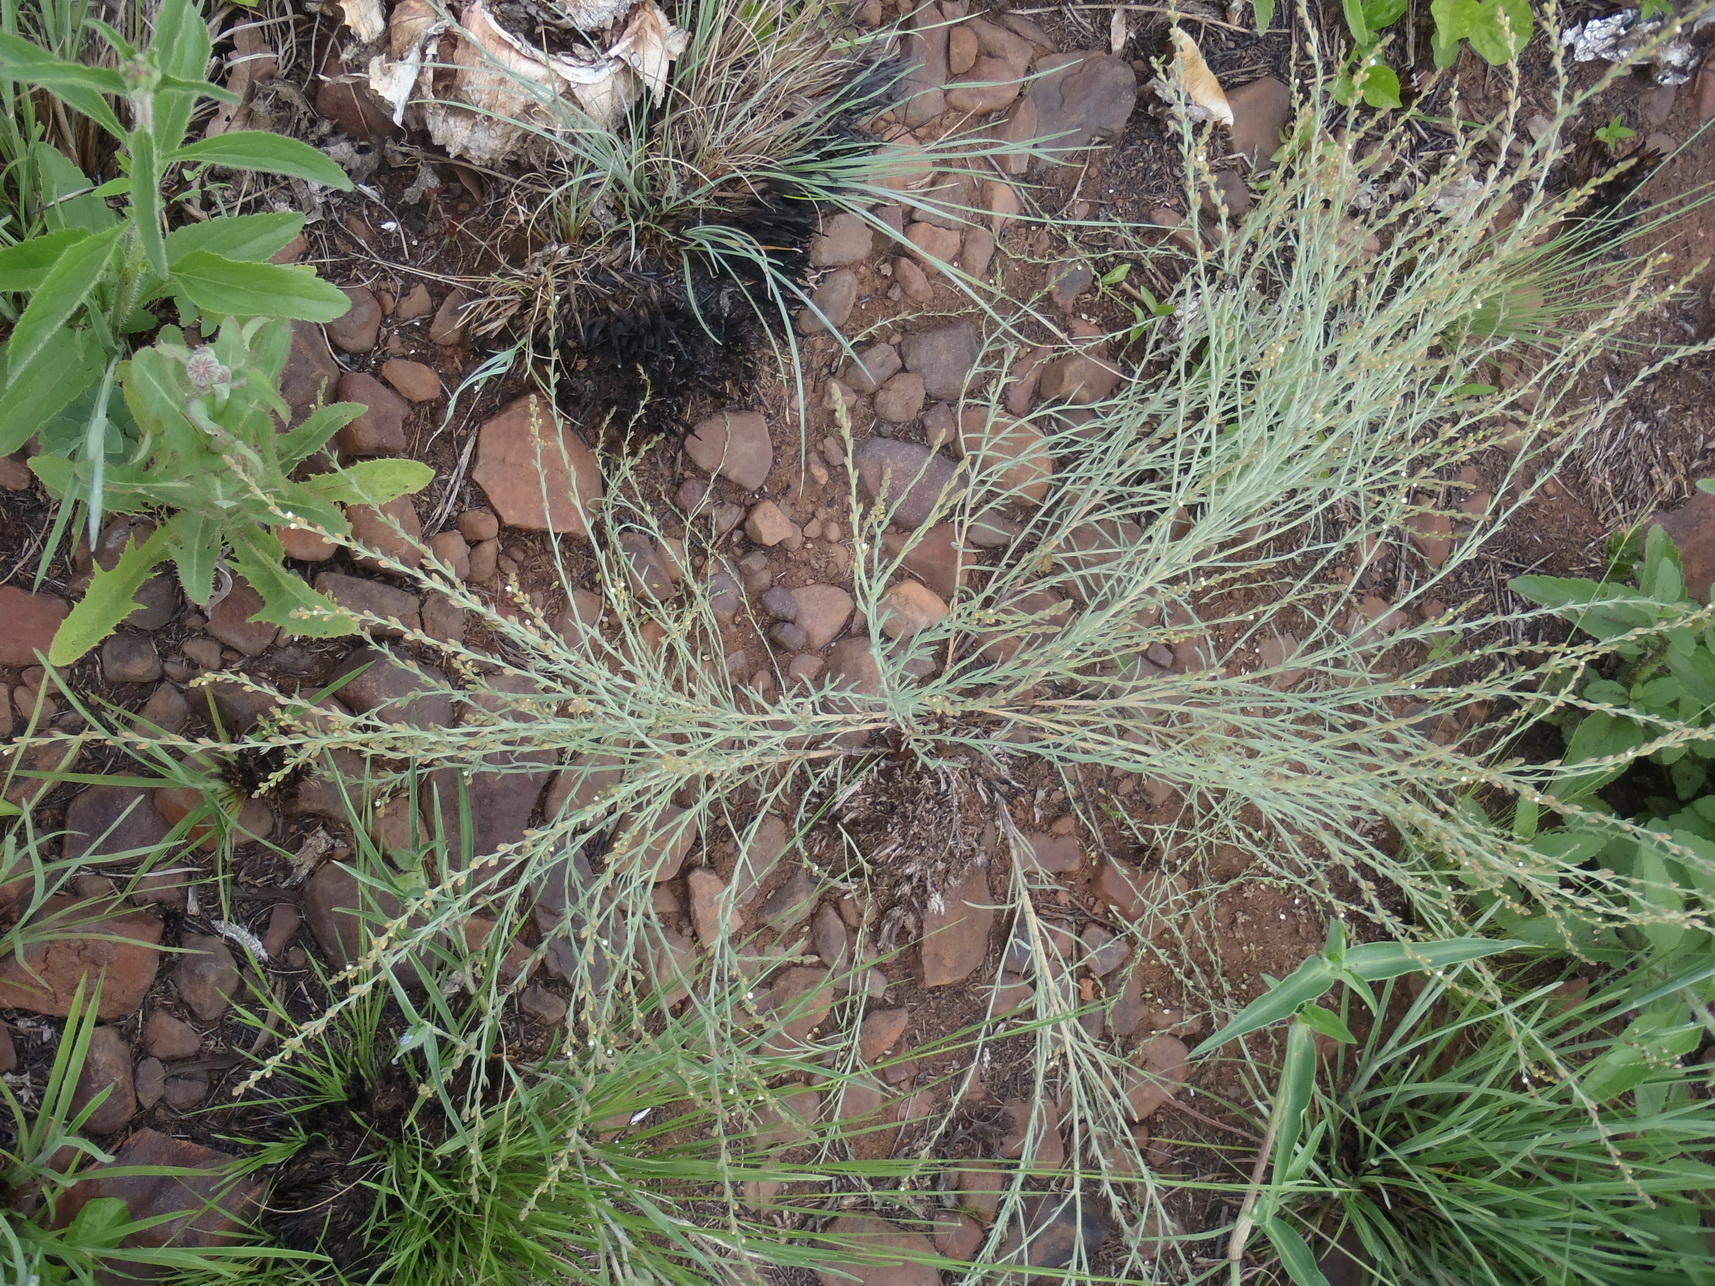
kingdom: Plantae
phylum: Tracheophyta
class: Magnoliopsida
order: Santalales
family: Thesiaceae
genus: Thesium
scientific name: Thesium magalismontanum
